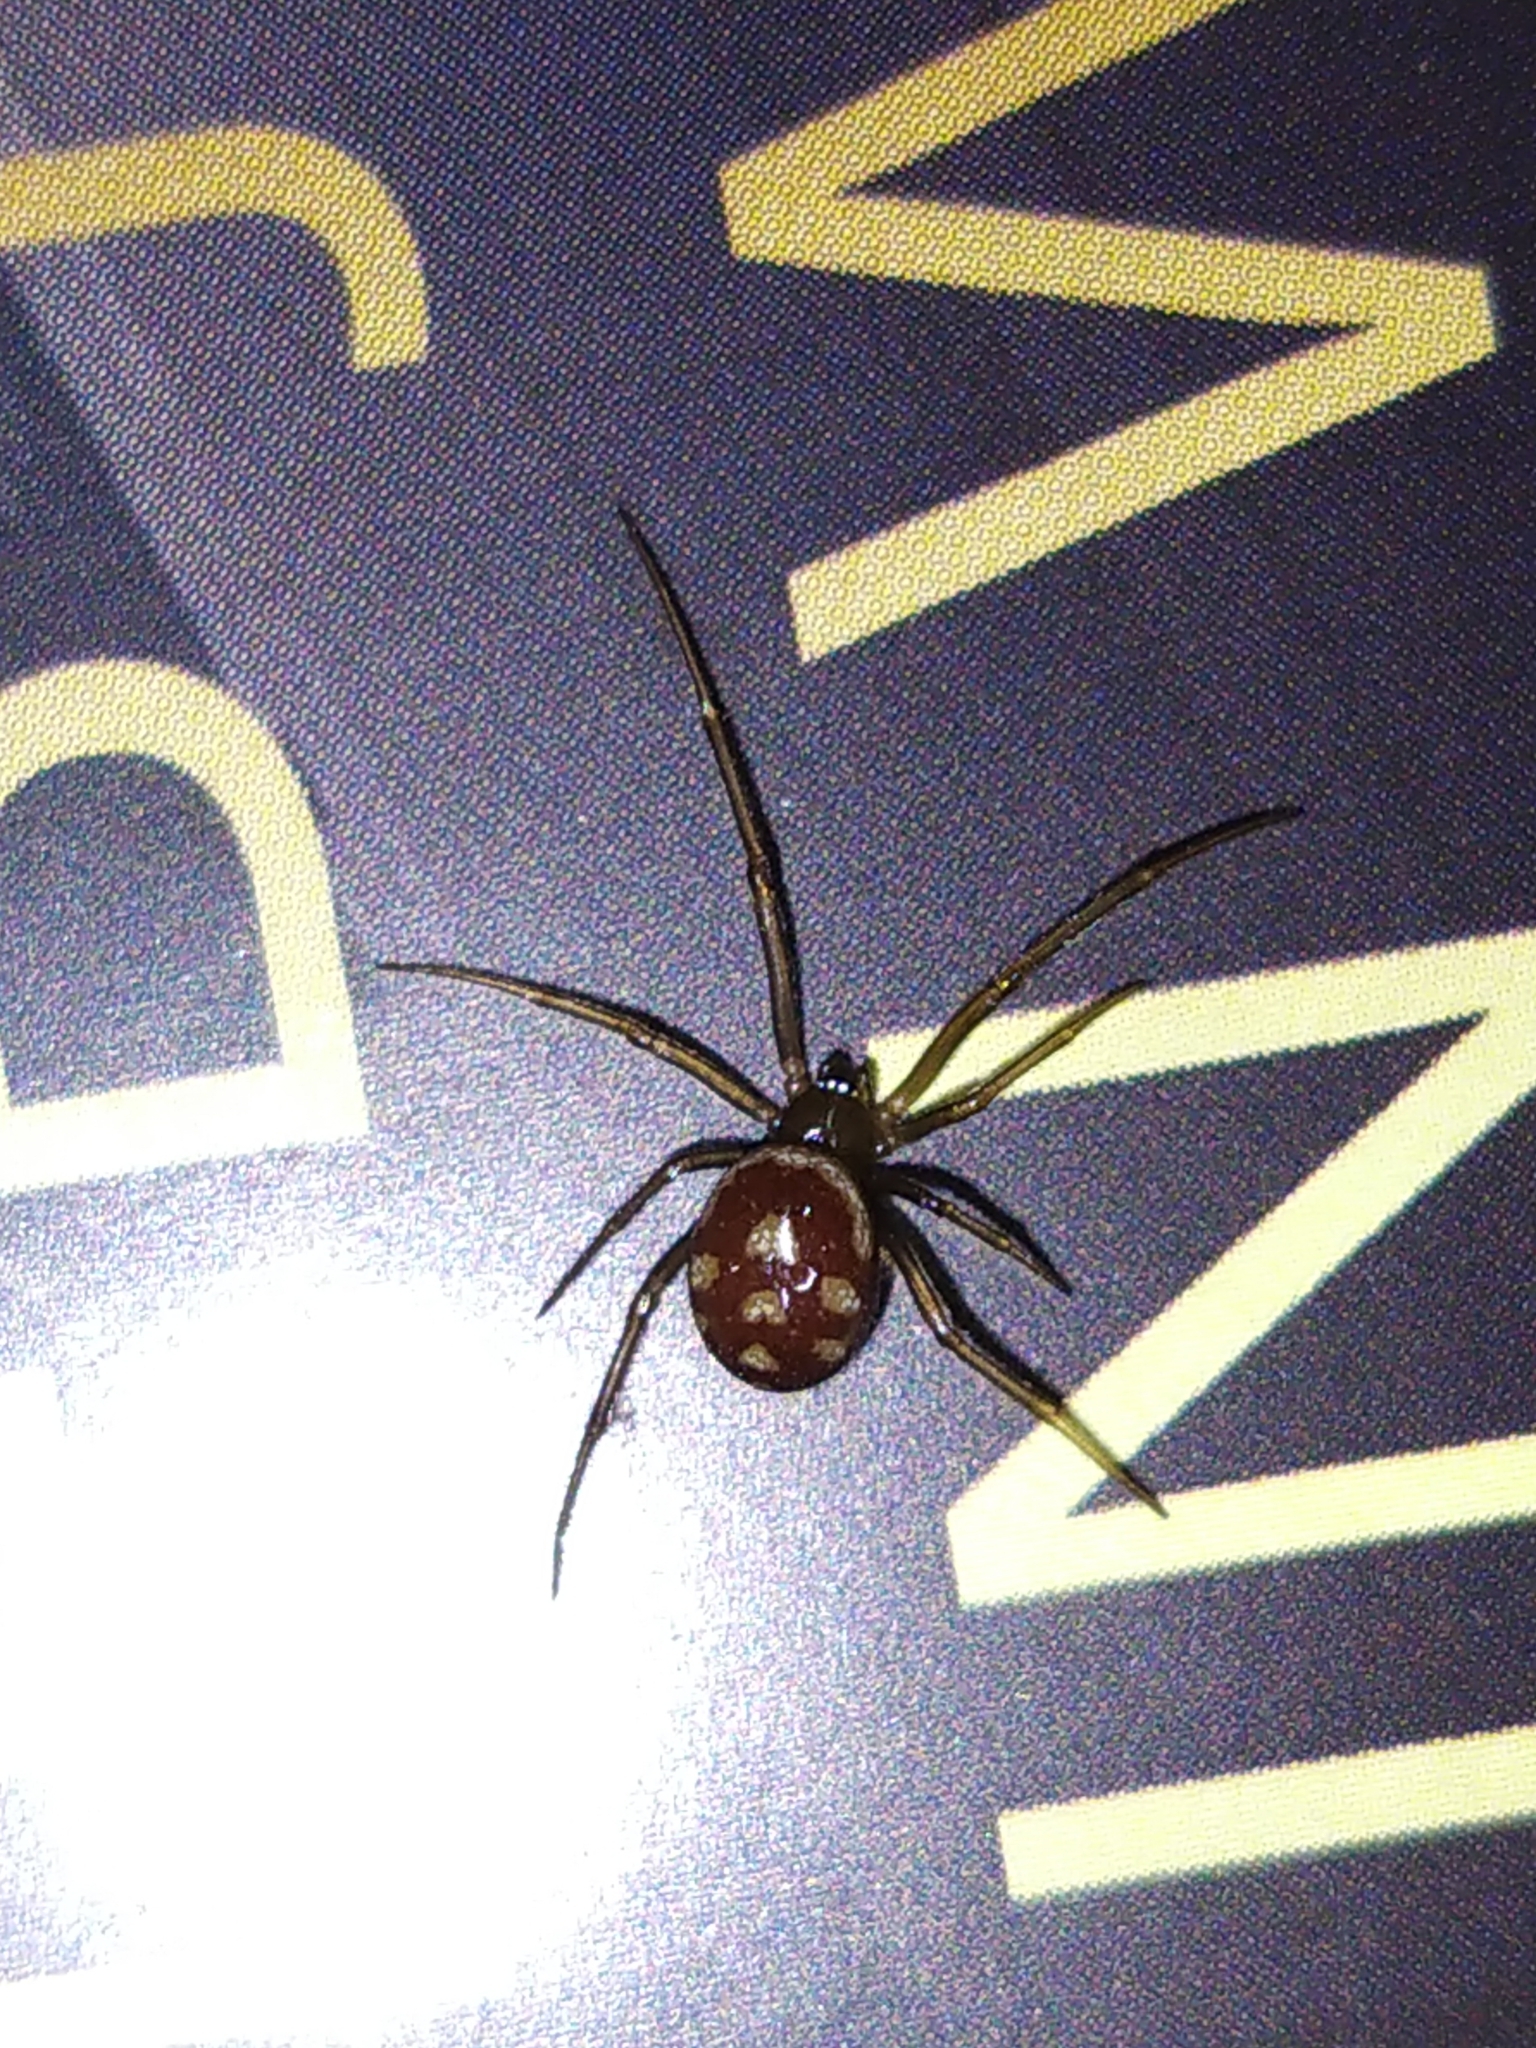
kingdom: Animalia
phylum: Arthropoda
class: Arachnida
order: Araneae
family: Theridiidae
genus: Steatoda
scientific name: Steatoda grossa
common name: False black widow
